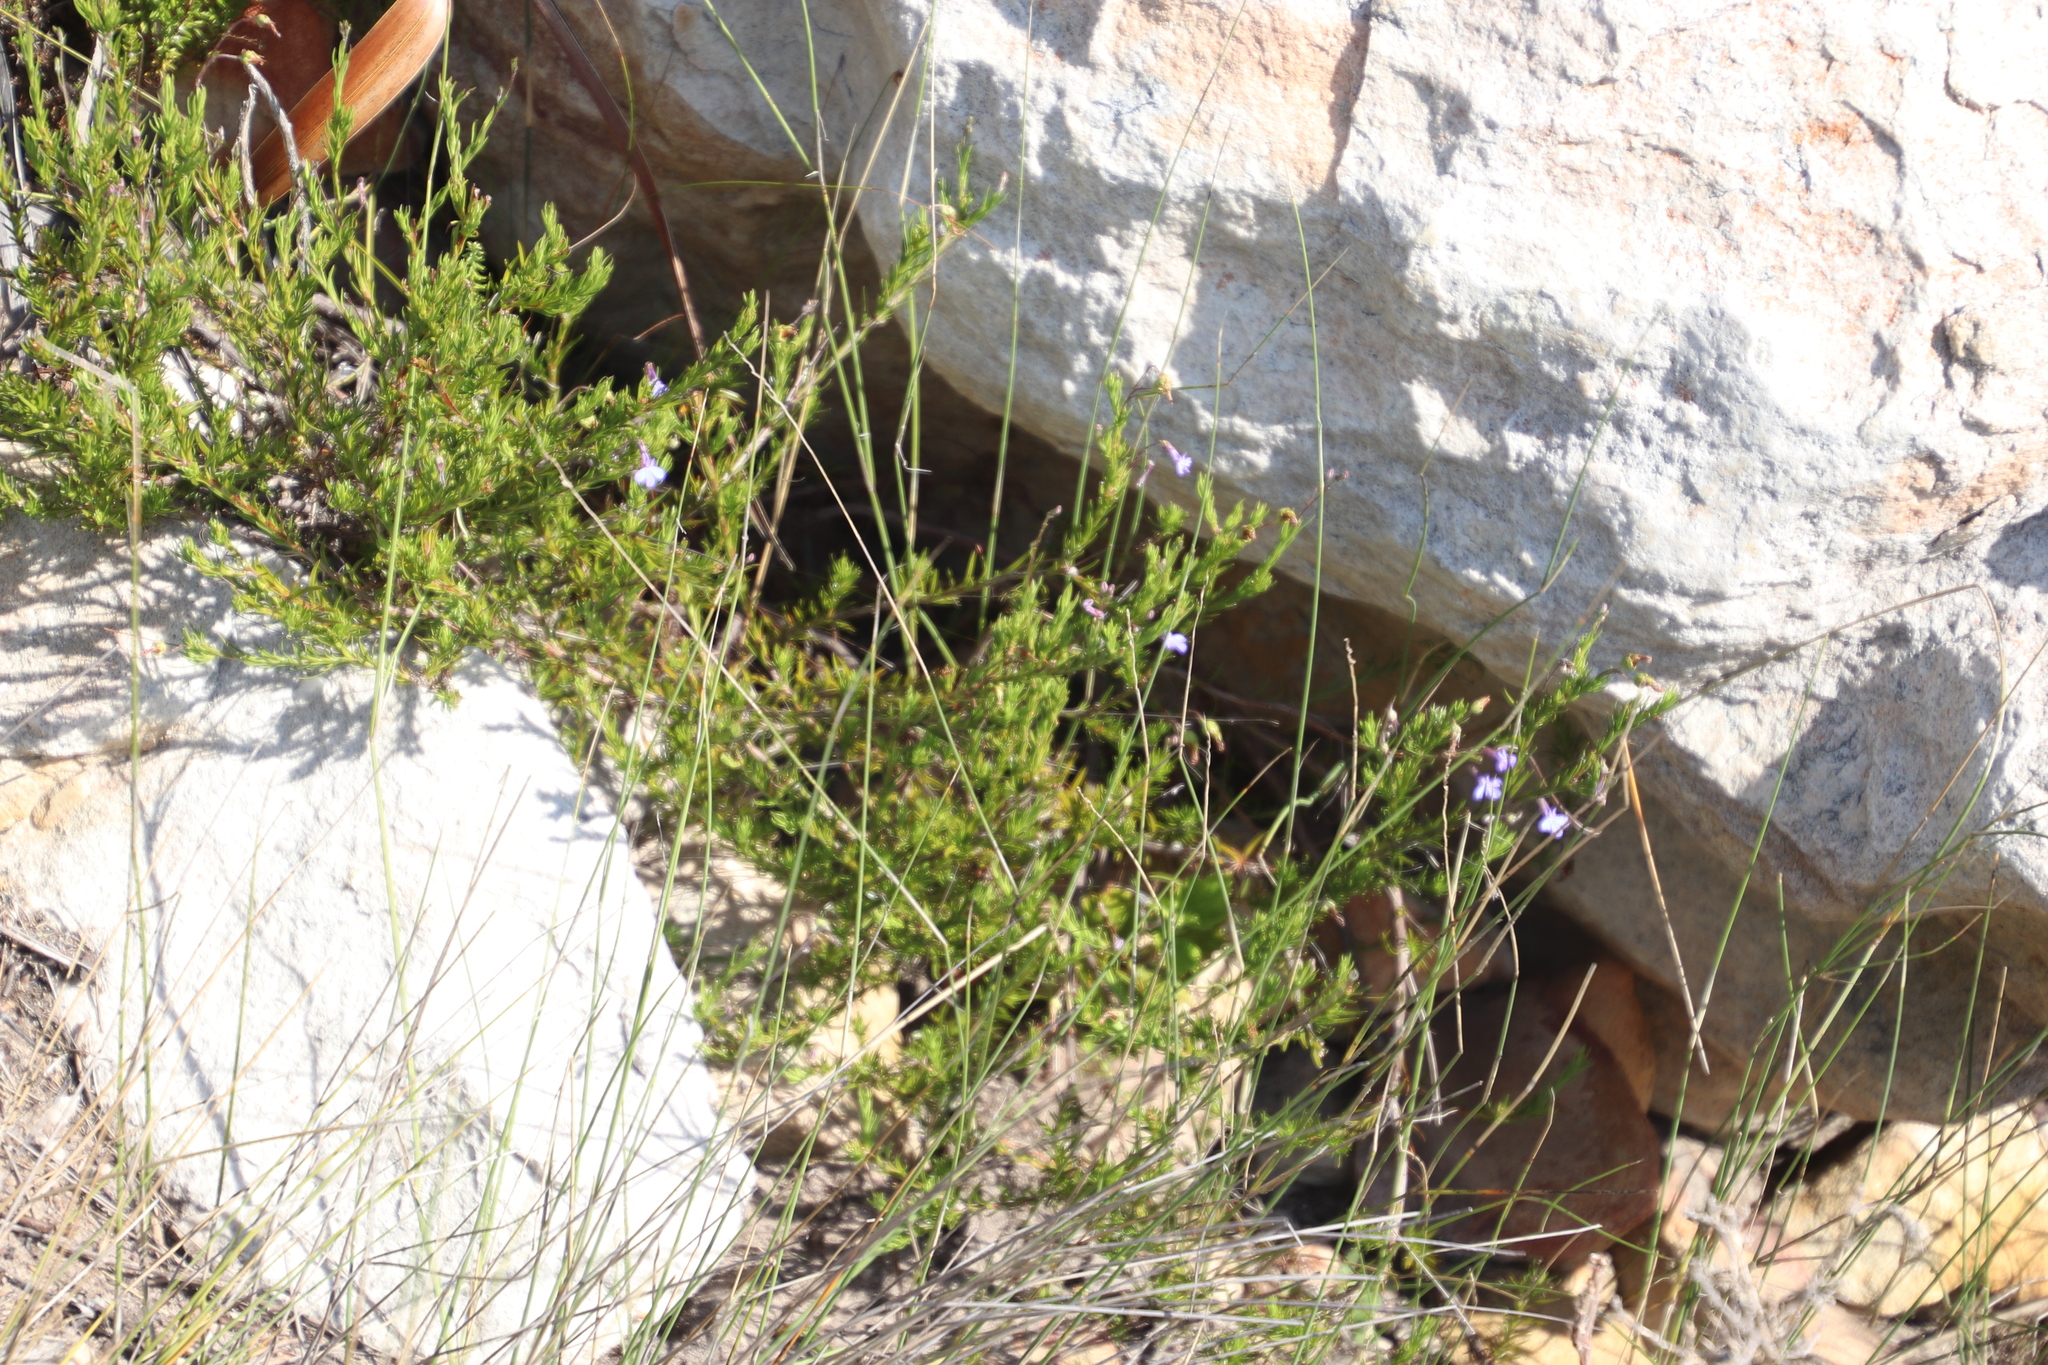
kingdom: Plantae
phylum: Tracheophyta
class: Magnoliopsida
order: Asterales
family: Campanulaceae
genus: Lobelia
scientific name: Lobelia pinifolia
